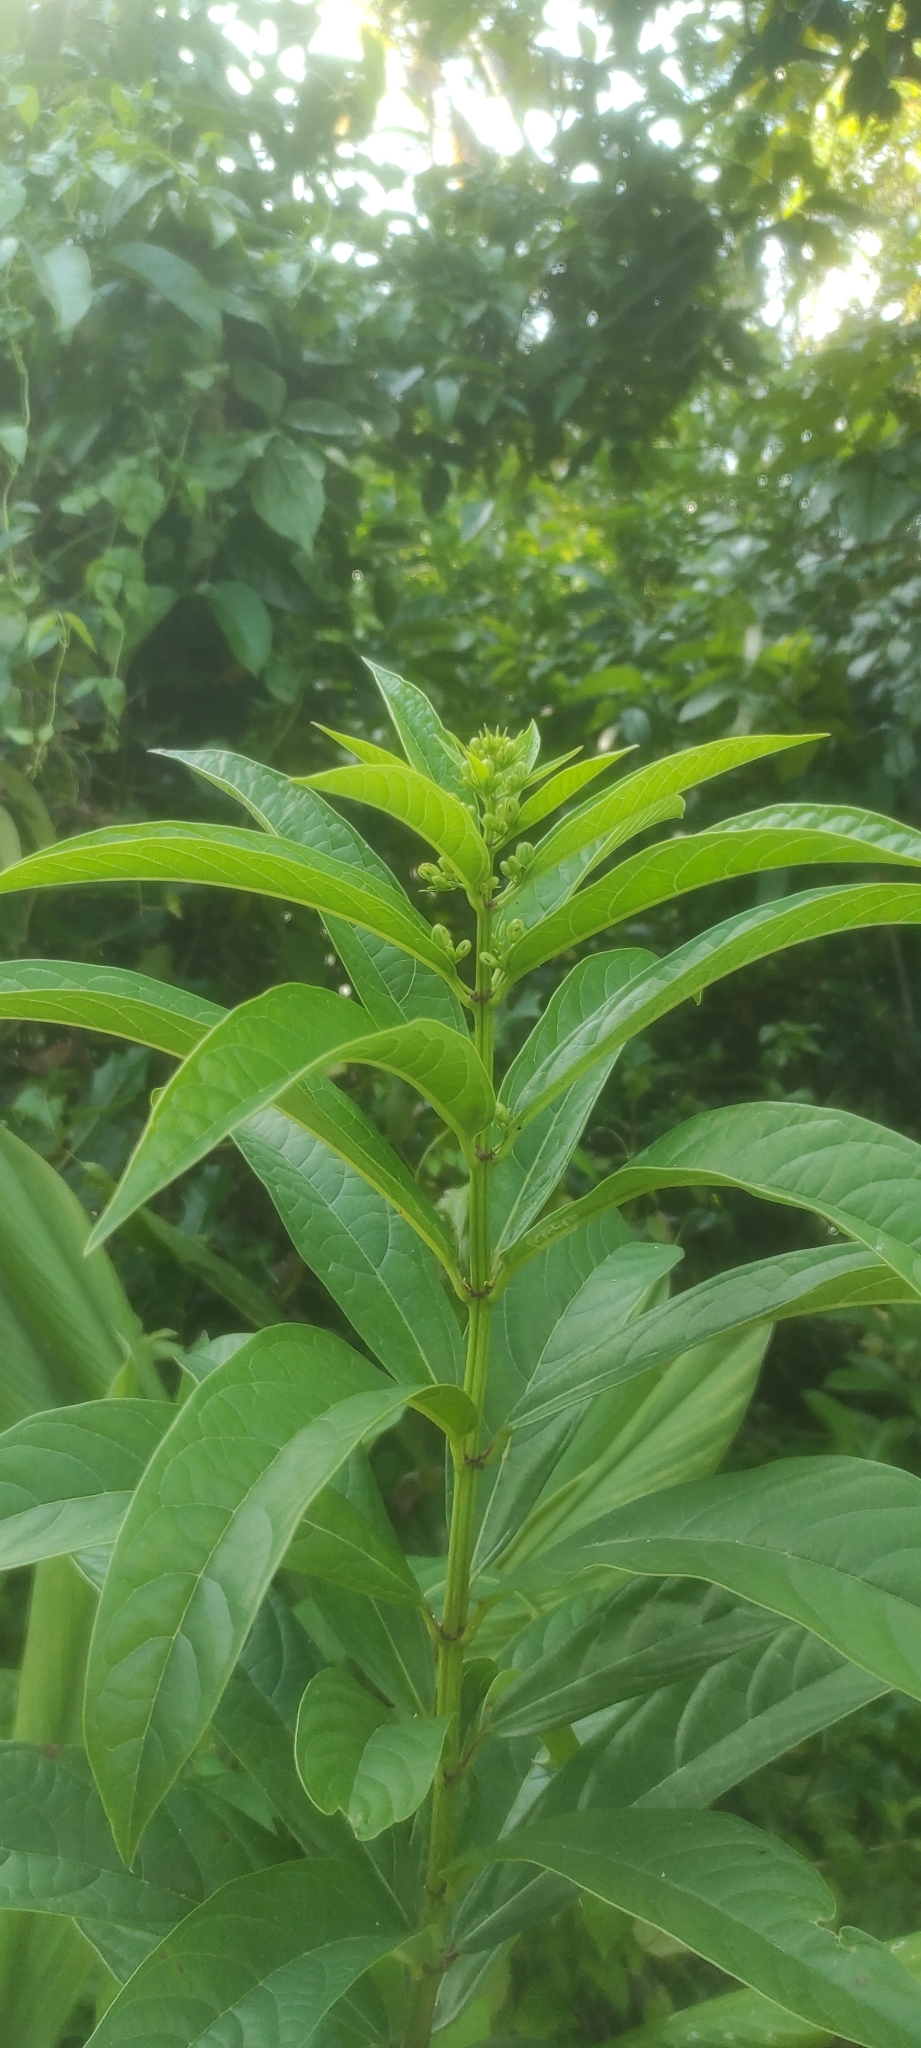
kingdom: Plantae
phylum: Tracheophyta
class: Magnoliopsida
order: Lamiales
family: Lamiaceae
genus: Clerodendrum
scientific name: Clerodendrum indicum
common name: Turk's turbin
